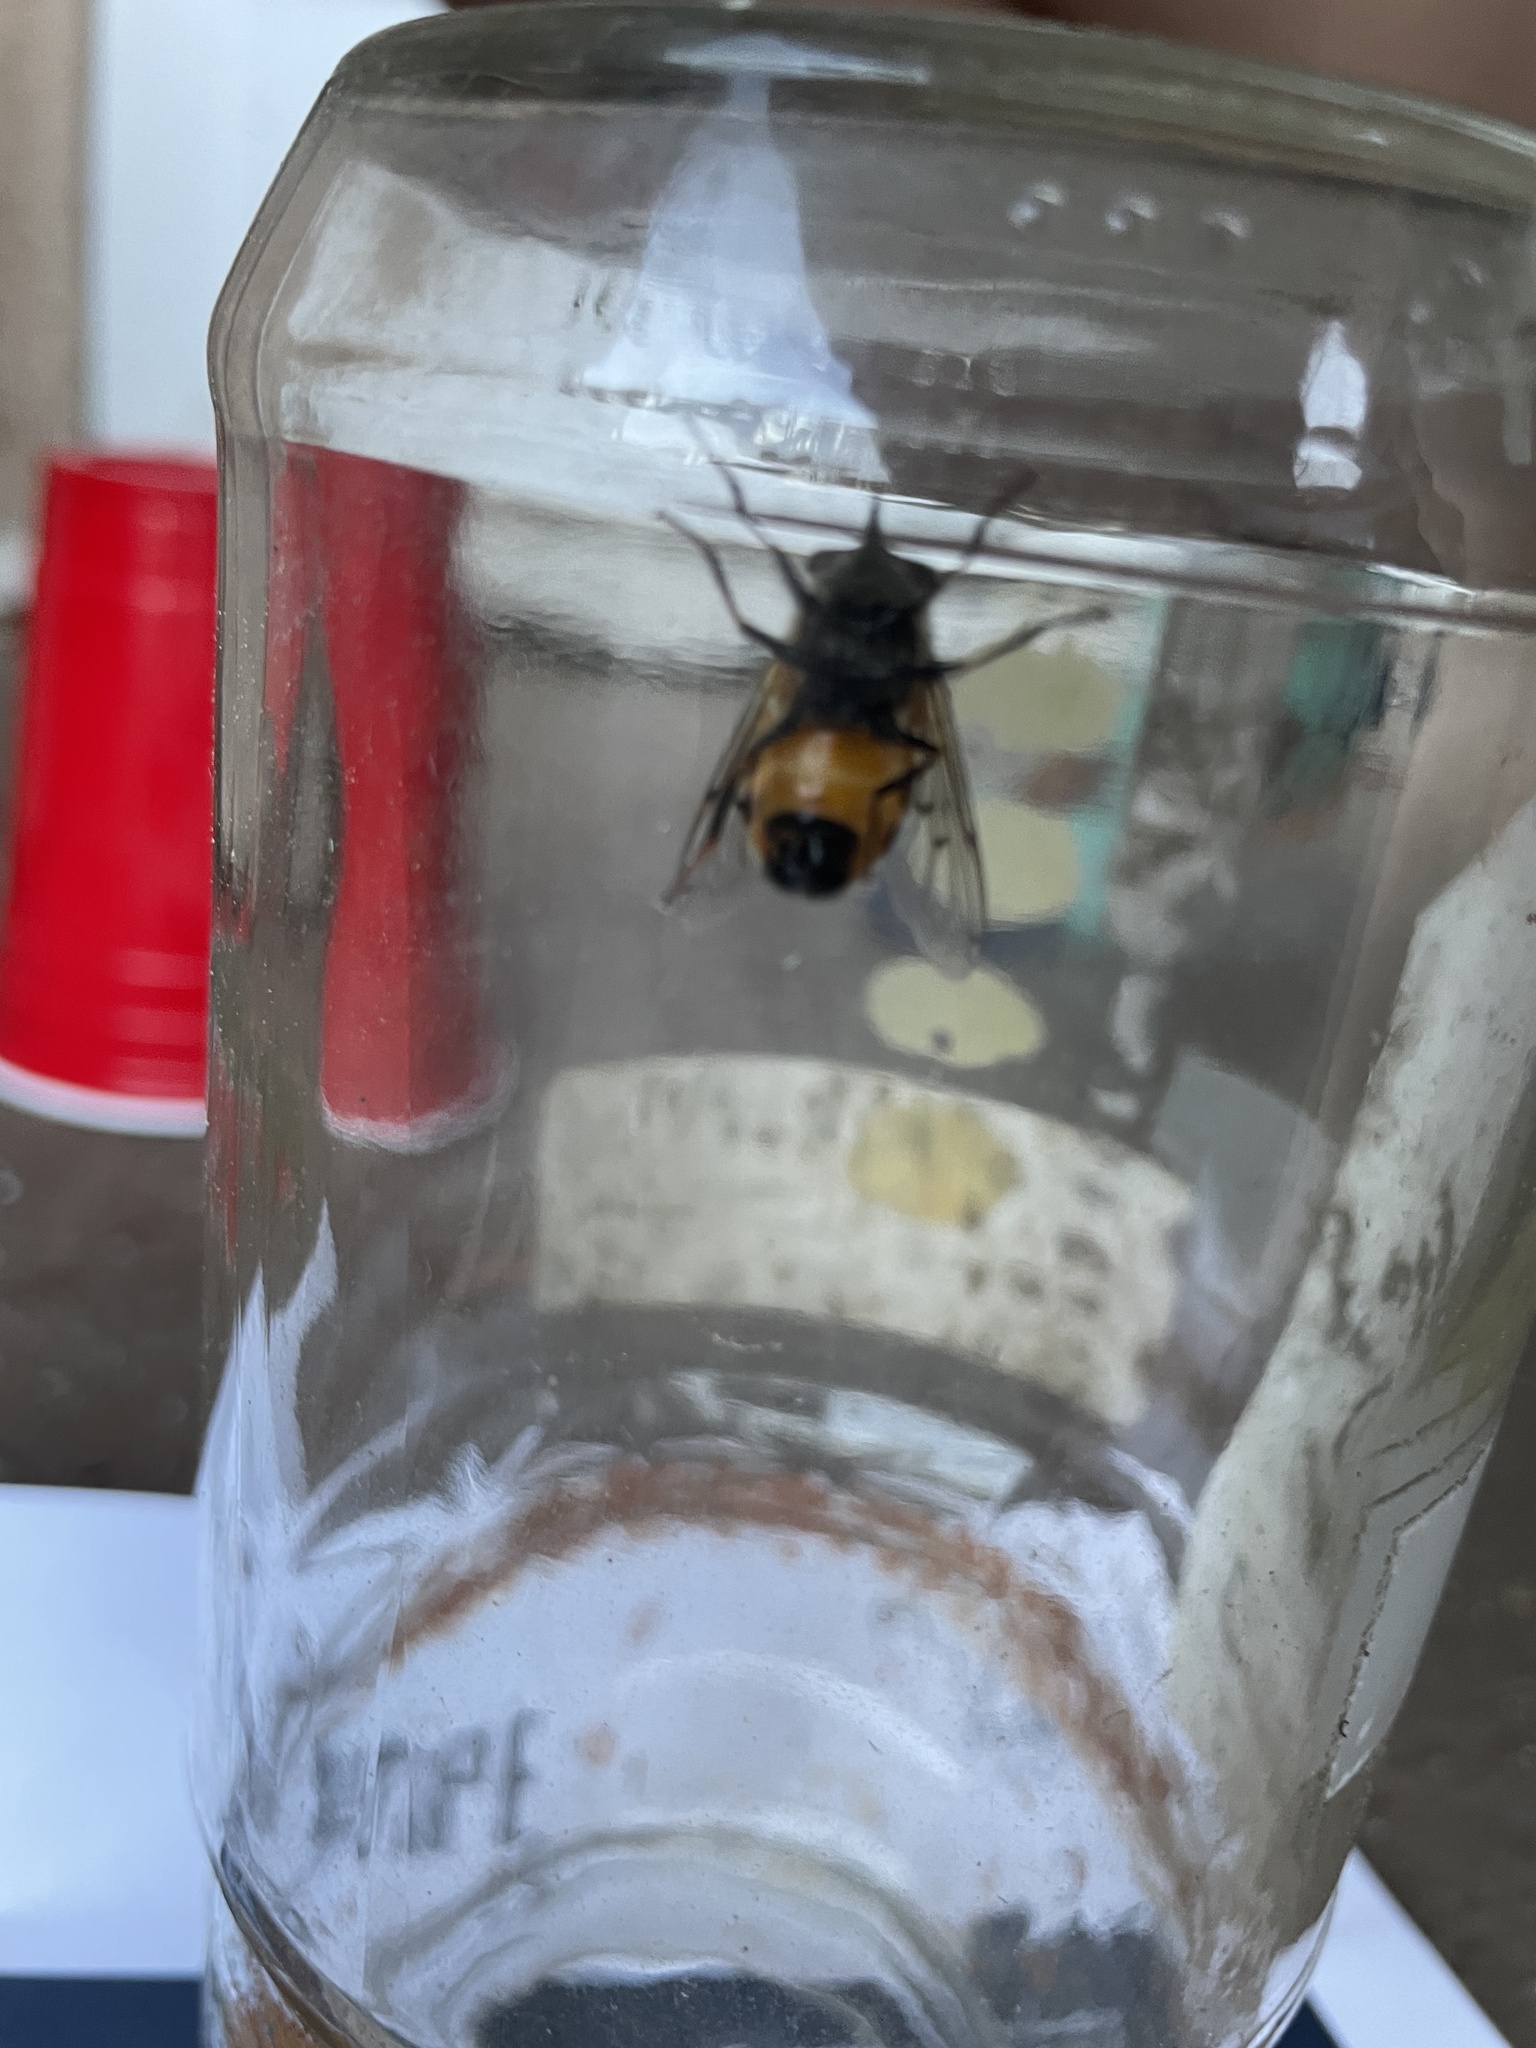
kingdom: Animalia
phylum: Arthropoda
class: Insecta
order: Diptera
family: Syrphidae
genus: Copestylum
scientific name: Copestylum haagii
